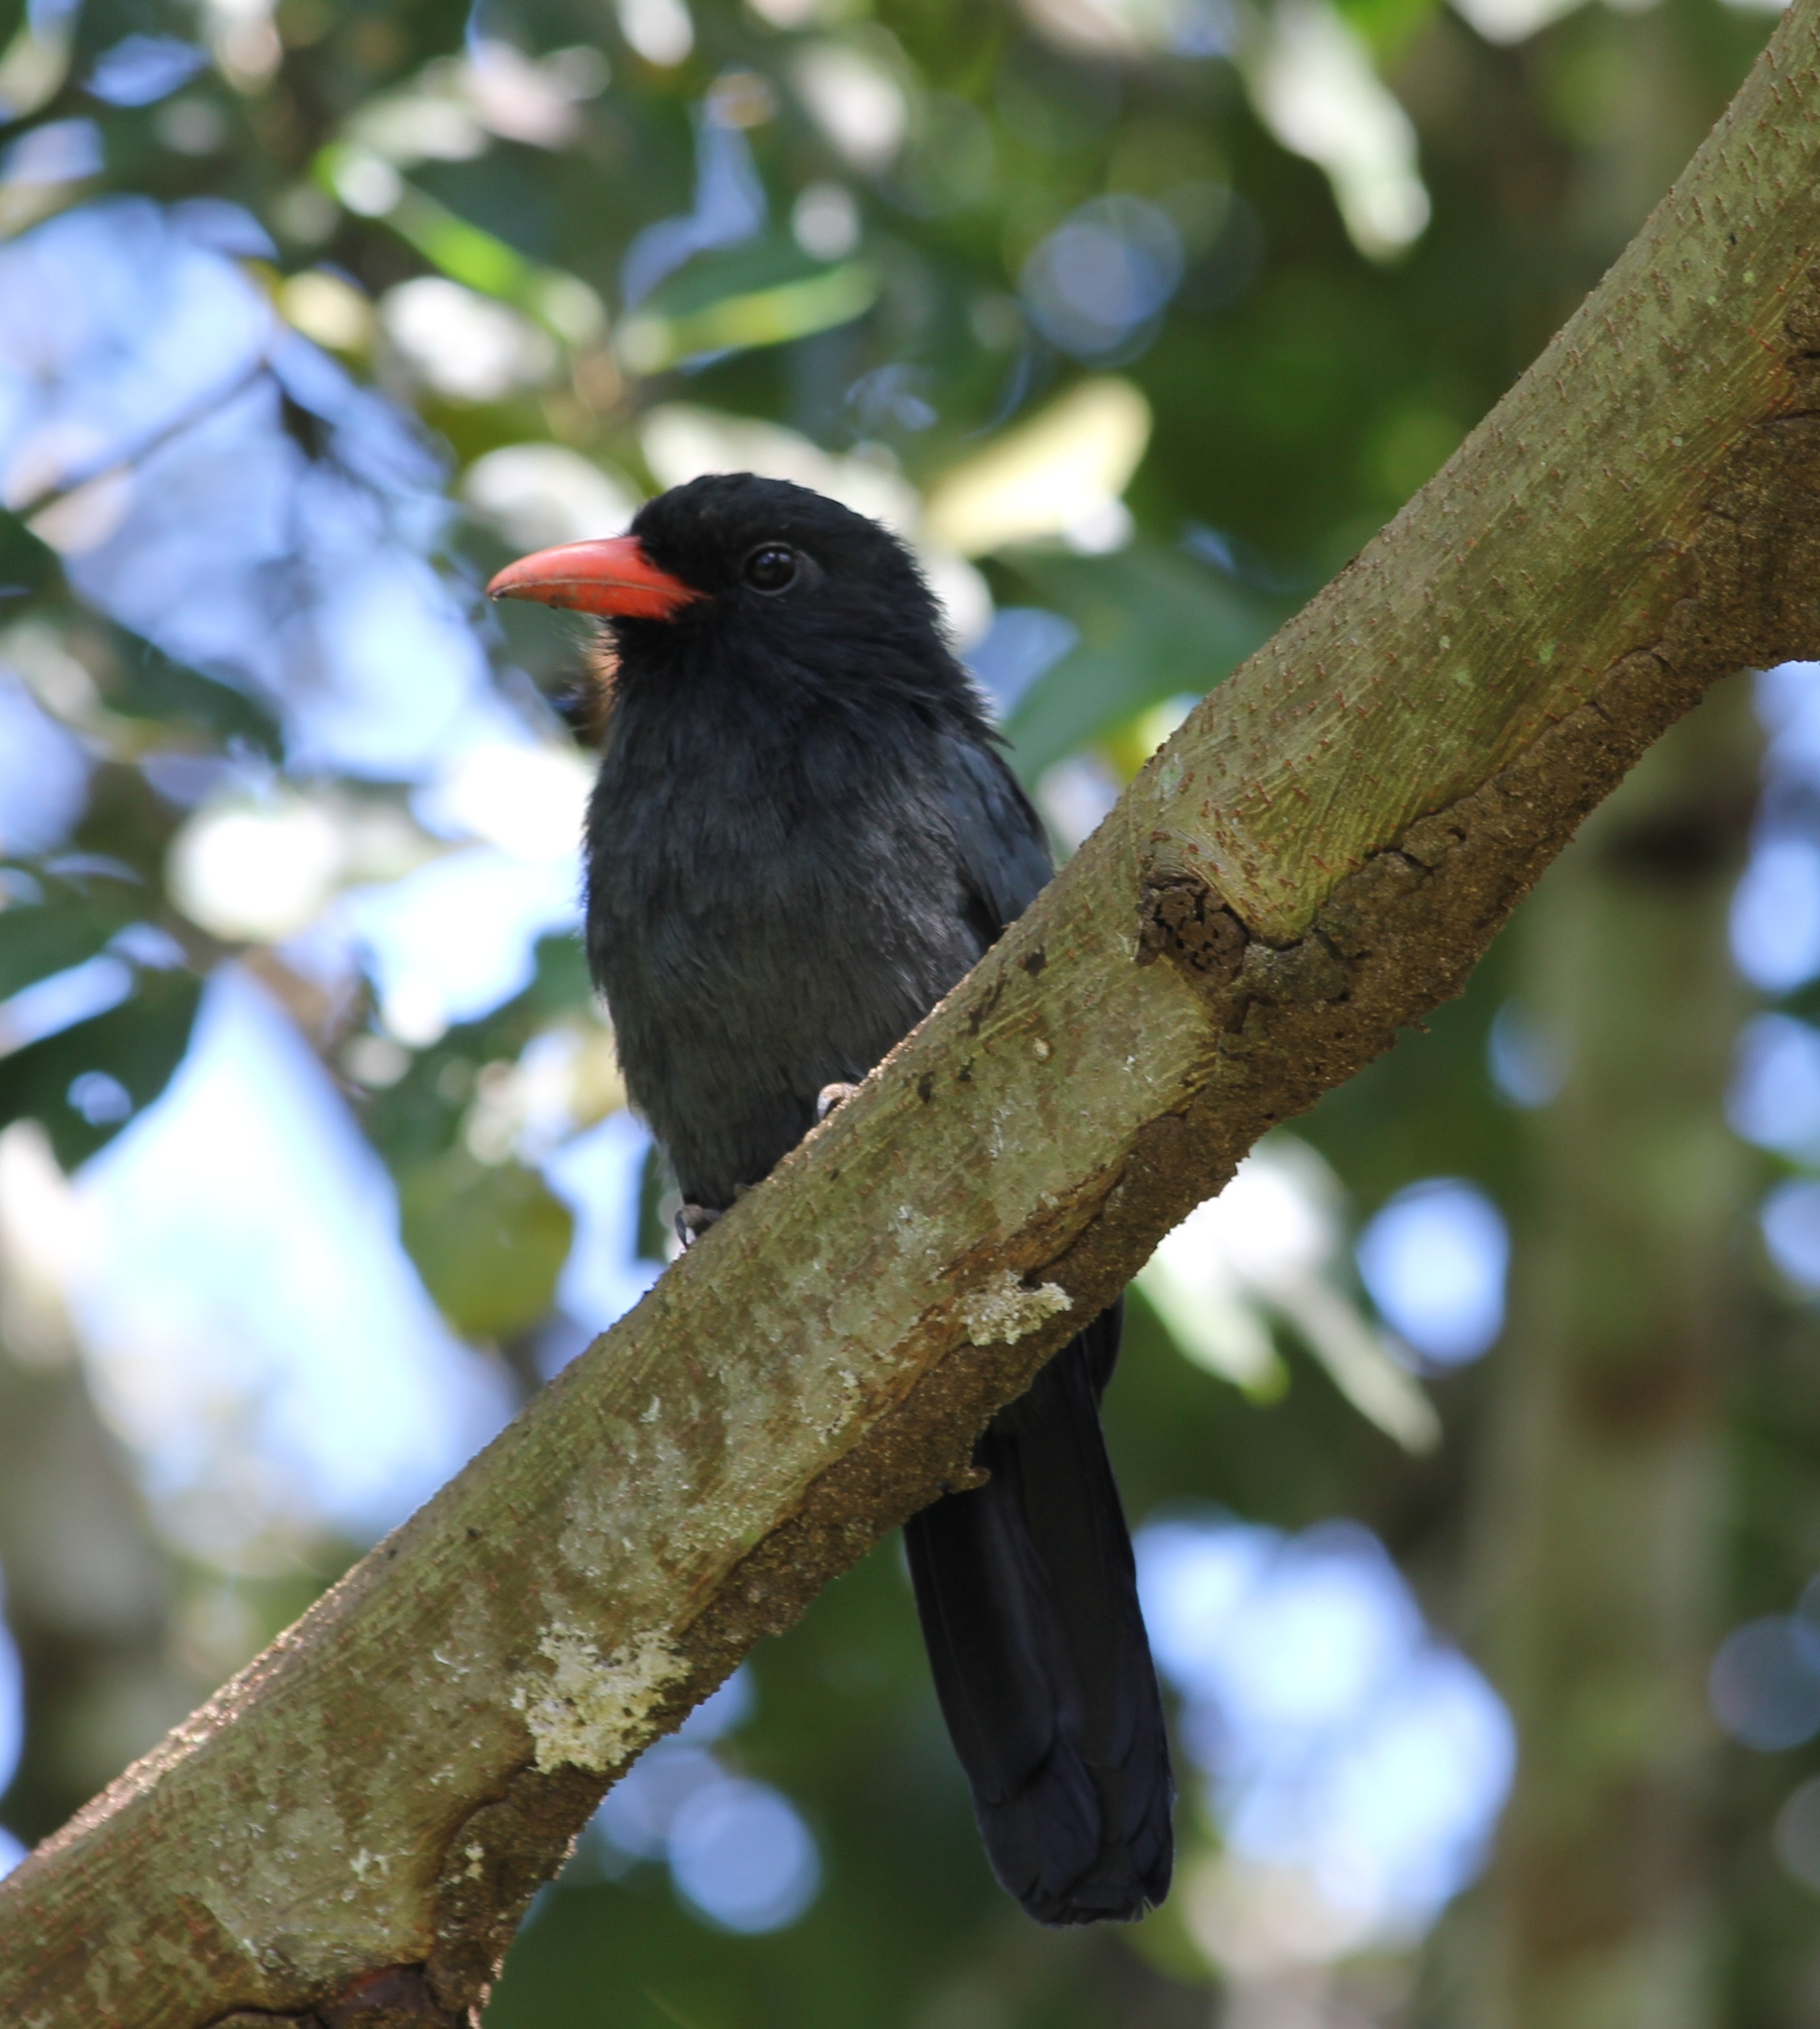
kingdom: Animalia
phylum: Chordata
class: Aves
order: Piciformes
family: Bucconidae
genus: Monasa
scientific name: Monasa nigrifrons
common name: Black-fronted nunbird
